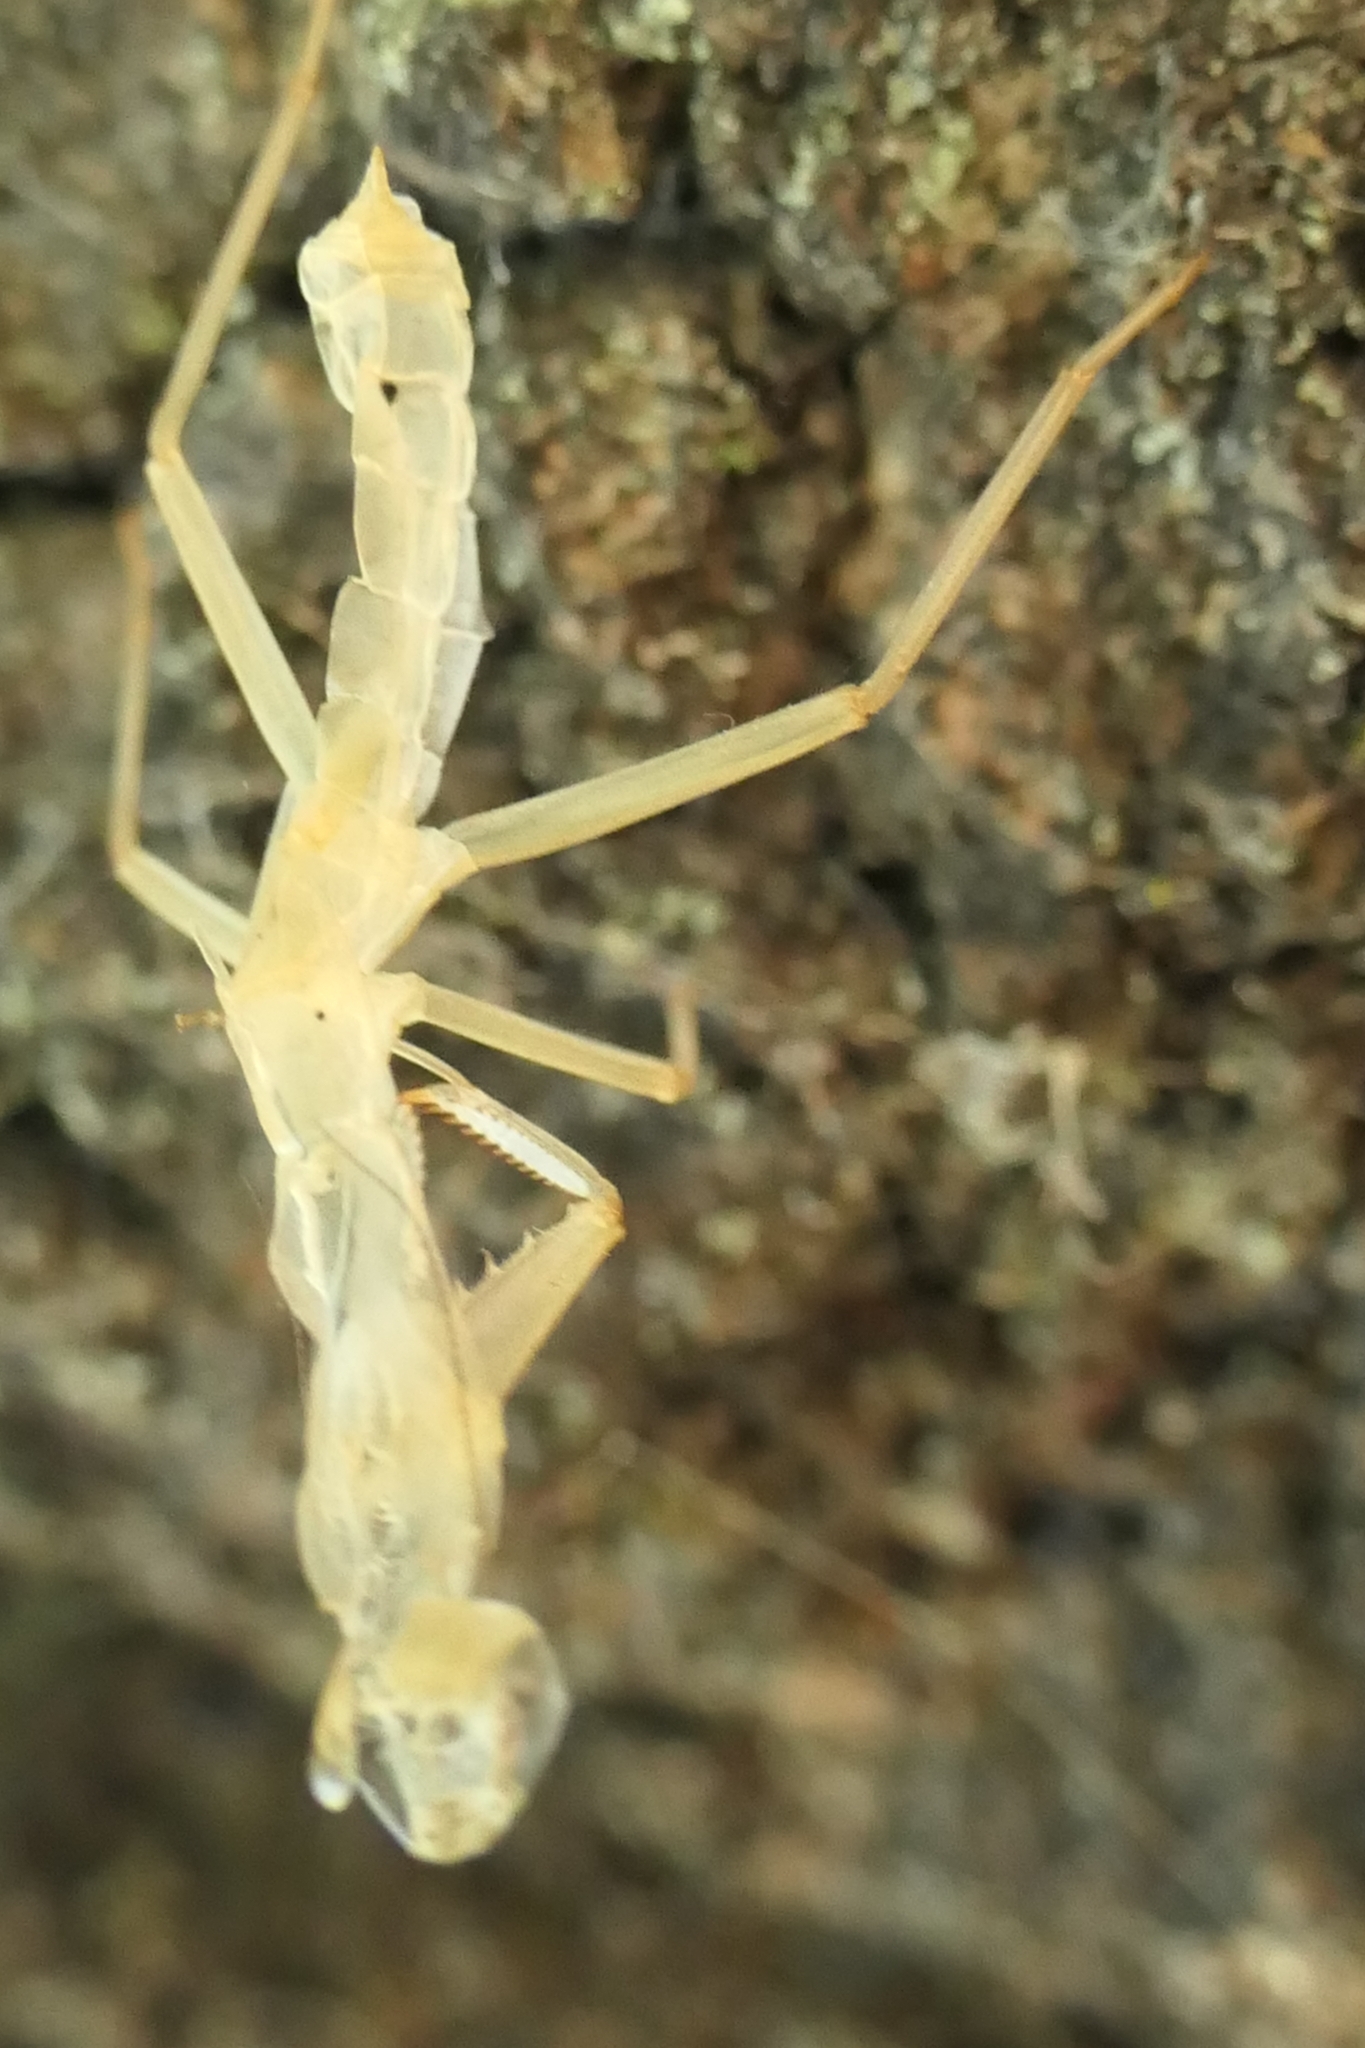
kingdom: Animalia
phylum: Arthropoda
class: Insecta
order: Mantodea
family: Mantidae
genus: Orthodera
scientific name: Orthodera novaezealandiae
